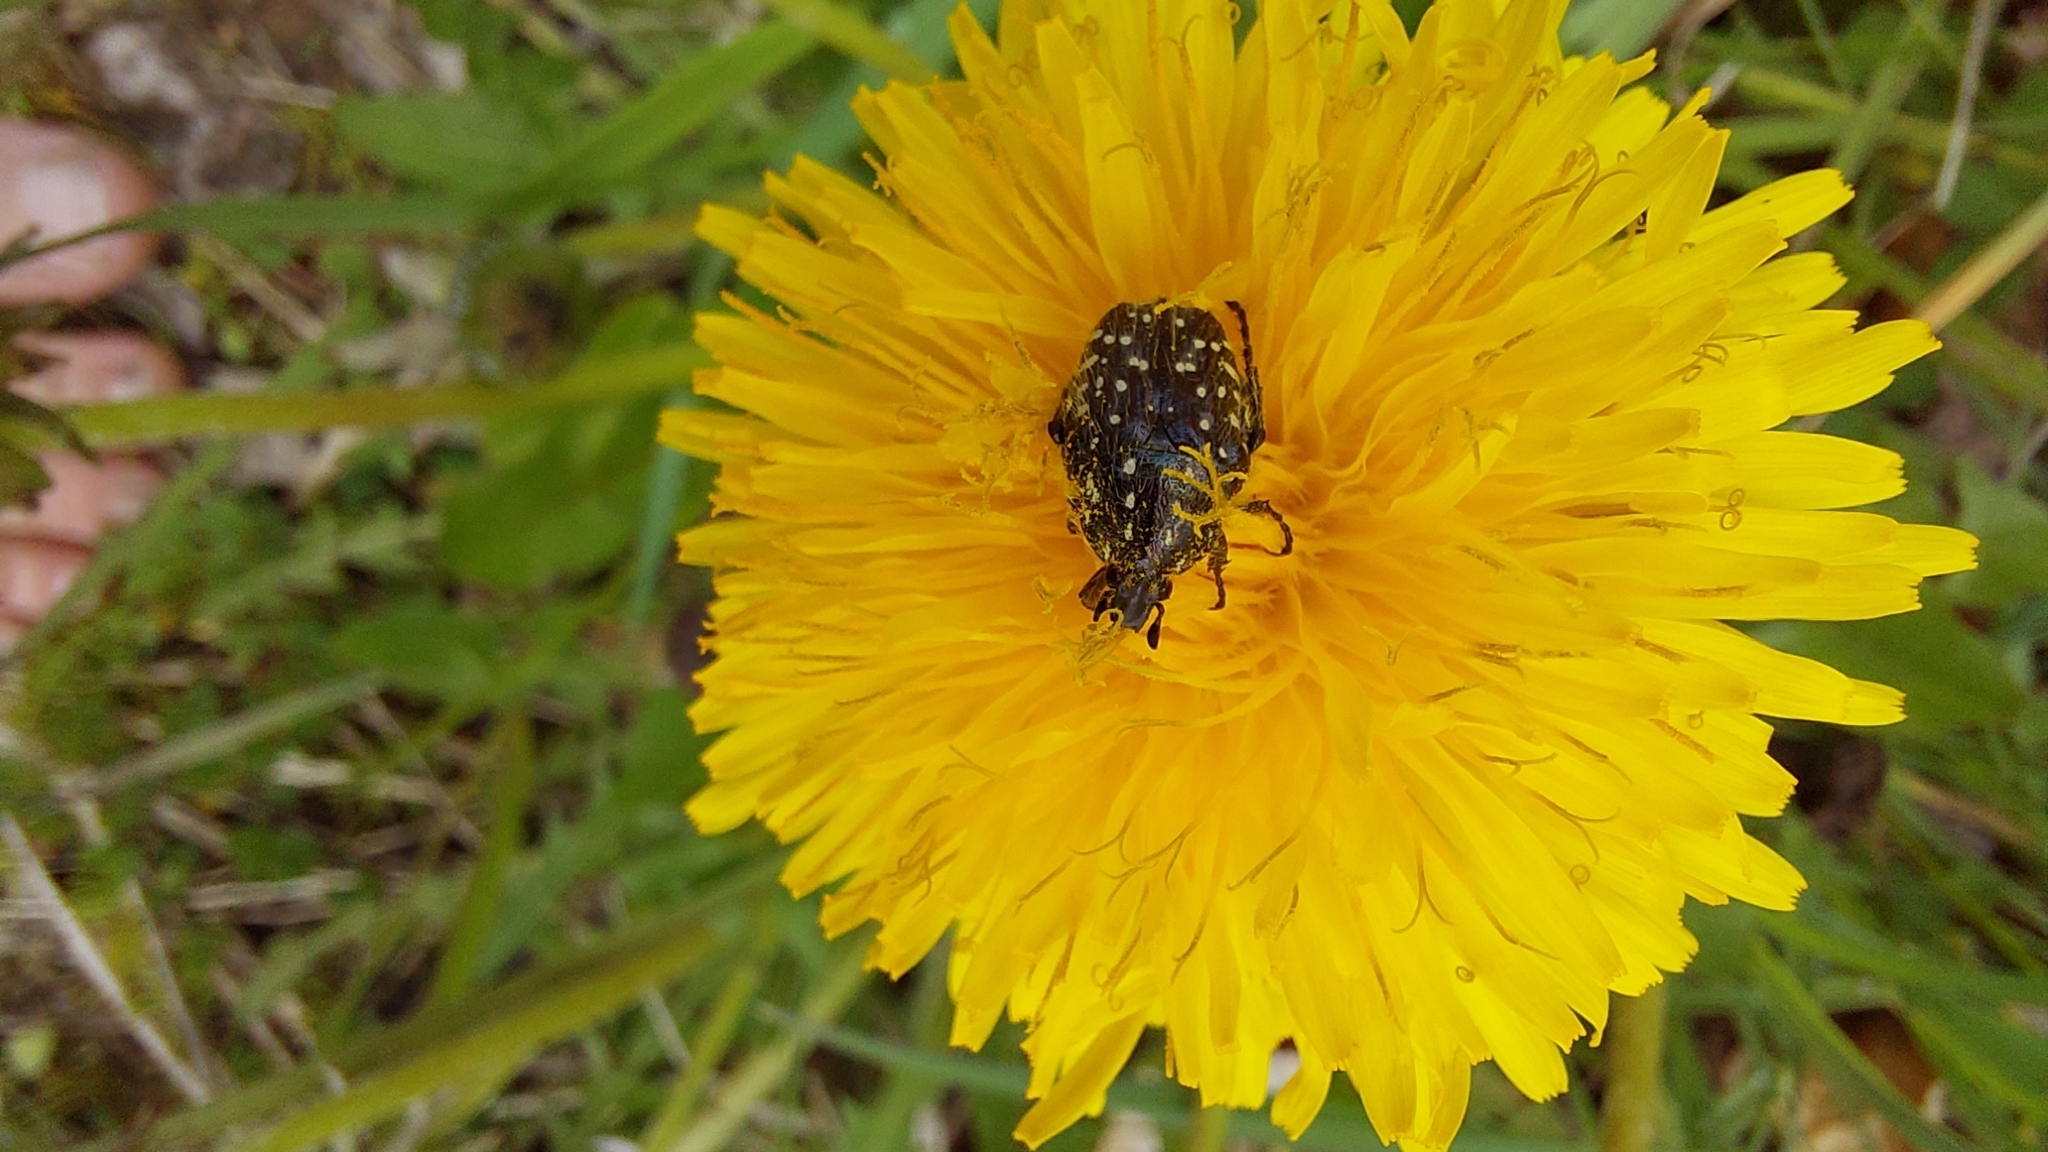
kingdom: Animalia
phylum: Arthropoda
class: Insecta
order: Coleoptera
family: Scarabaeidae
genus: Oxythyrea
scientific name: Oxythyrea funesta
